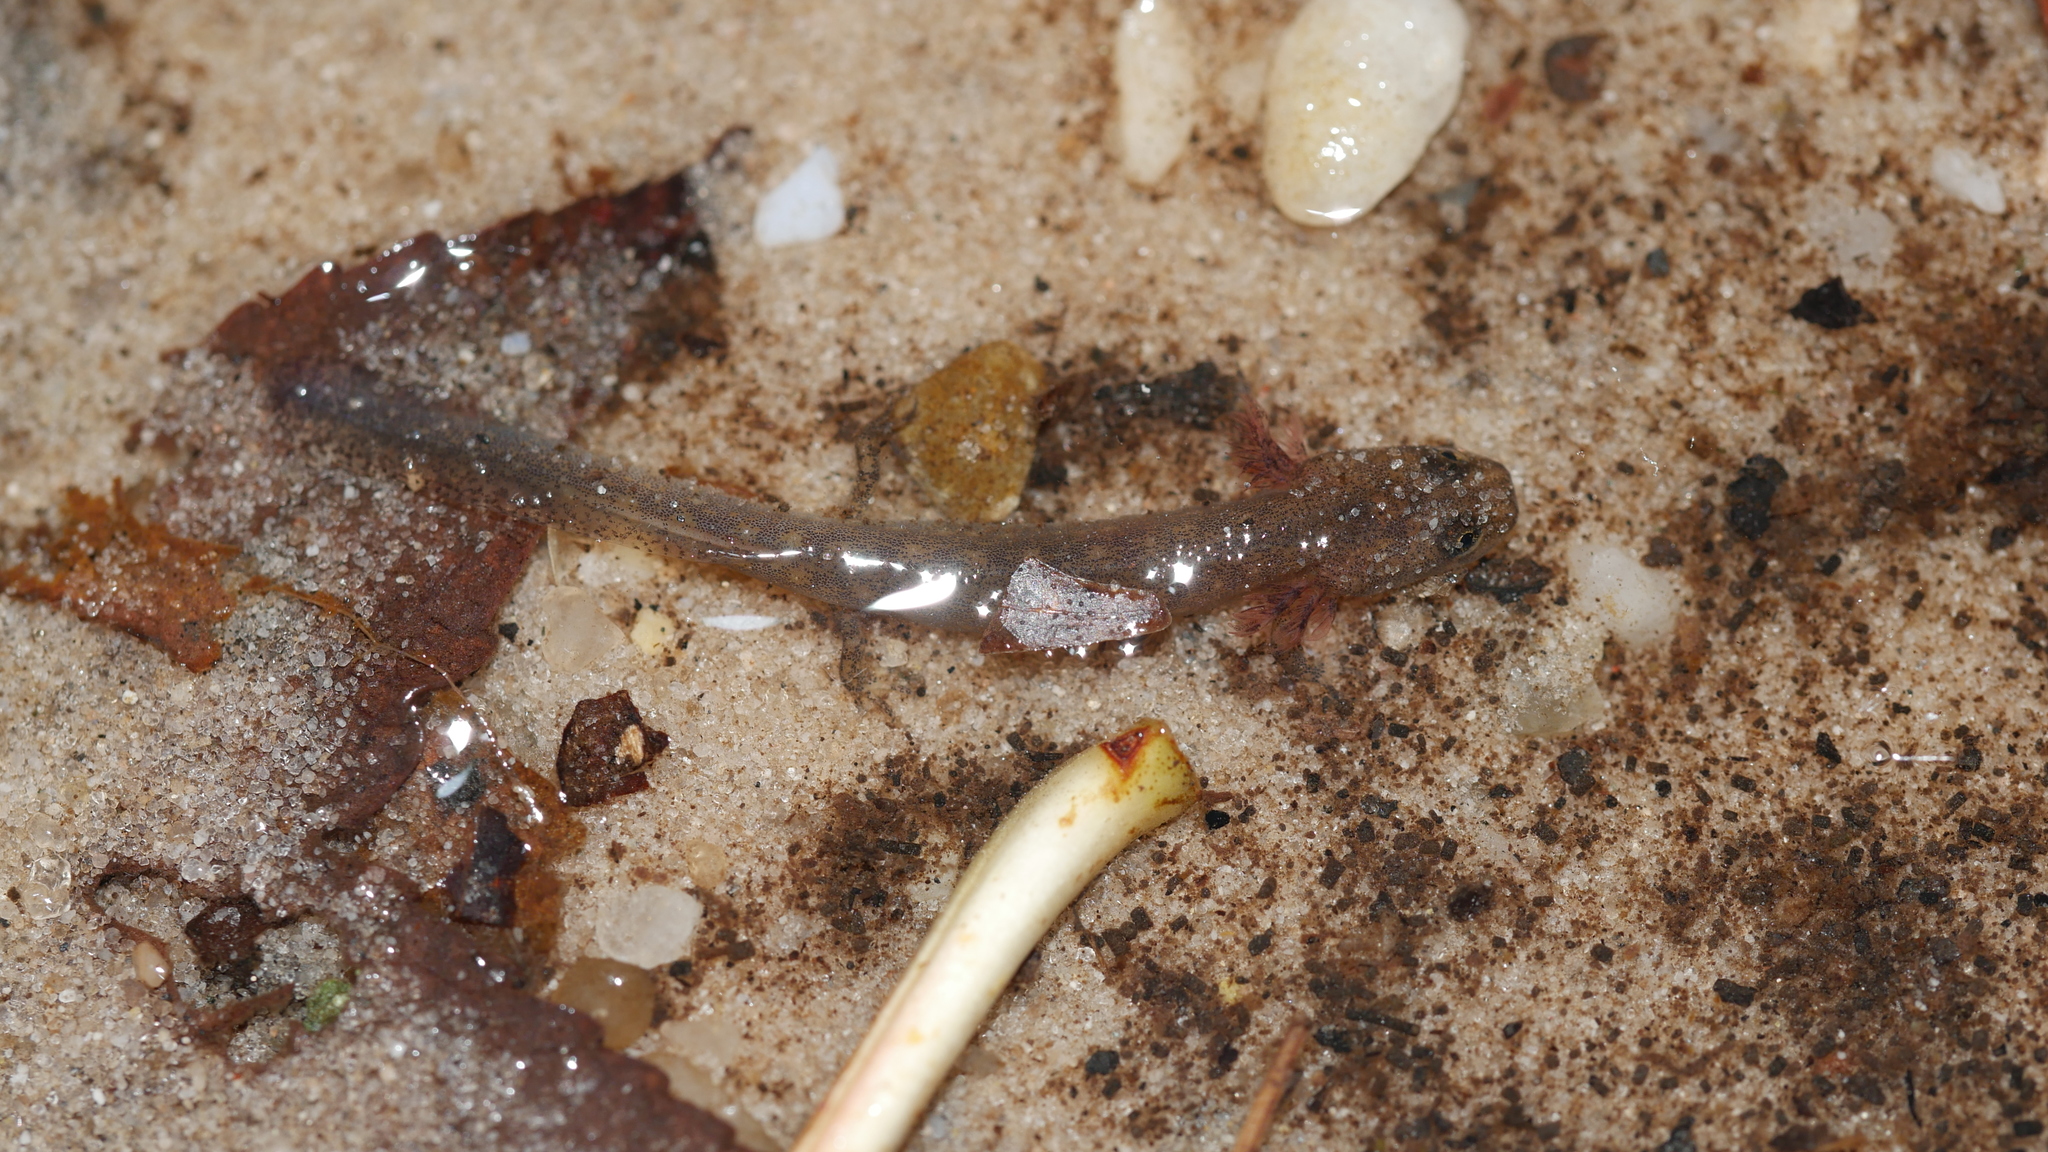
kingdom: Animalia
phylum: Chordata
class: Amphibia
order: Caudata
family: Plethodontidae
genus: Eurycea
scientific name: Eurycea cirrigera
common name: Southern two-lined salamander
